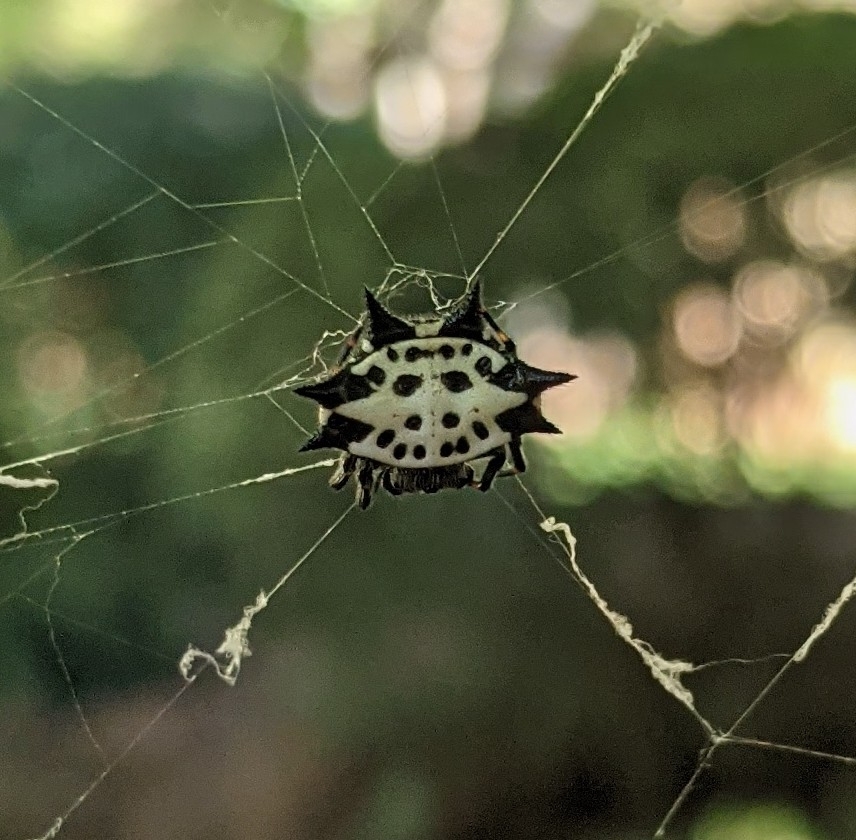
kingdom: Animalia
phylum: Arthropoda
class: Arachnida
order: Araneae
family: Araneidae
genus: Gasteracantha
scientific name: Gasteracantha cancriformis
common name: Orb weavers
